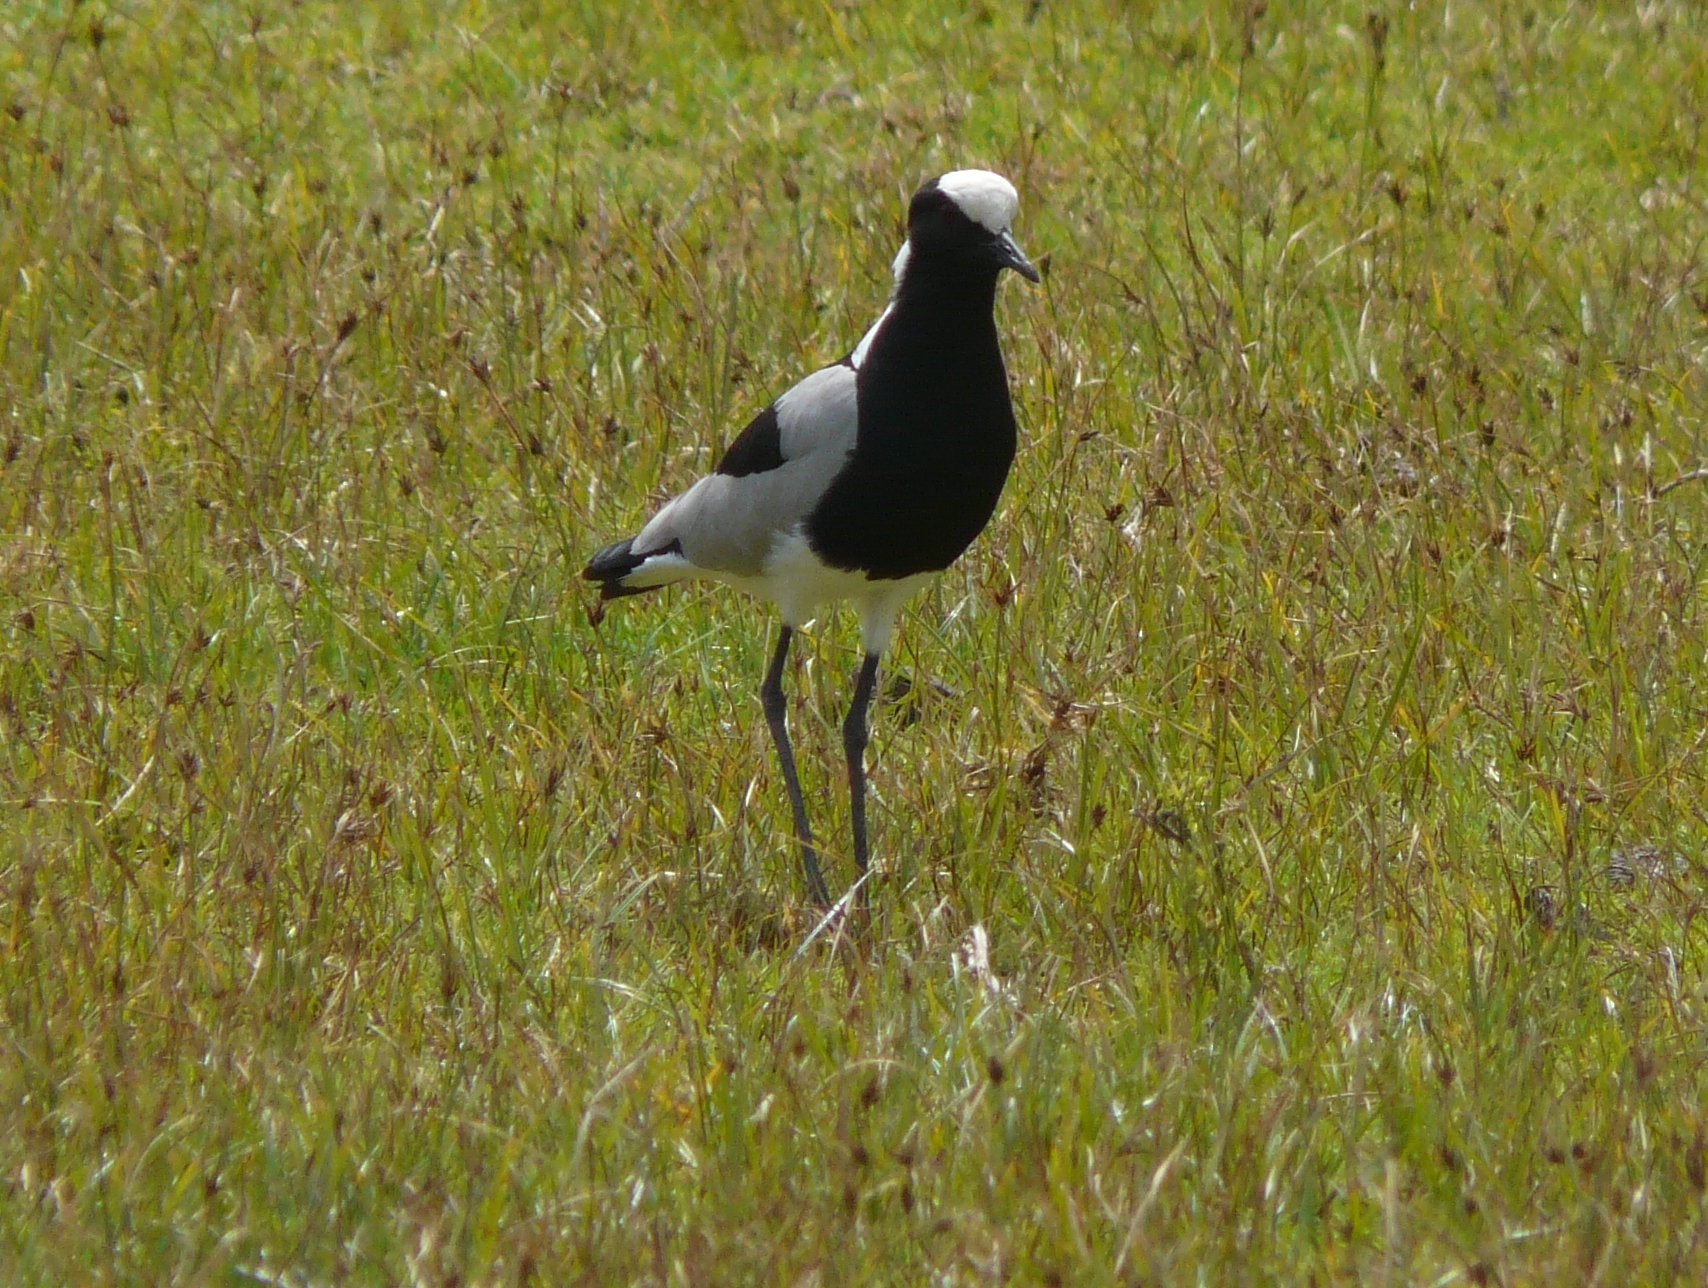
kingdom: Animalia
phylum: Chordata
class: Aves
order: Charadriiformes
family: Charadriidae
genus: Vanellus
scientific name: Vanellus armatus
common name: Blacksmith lapwing
